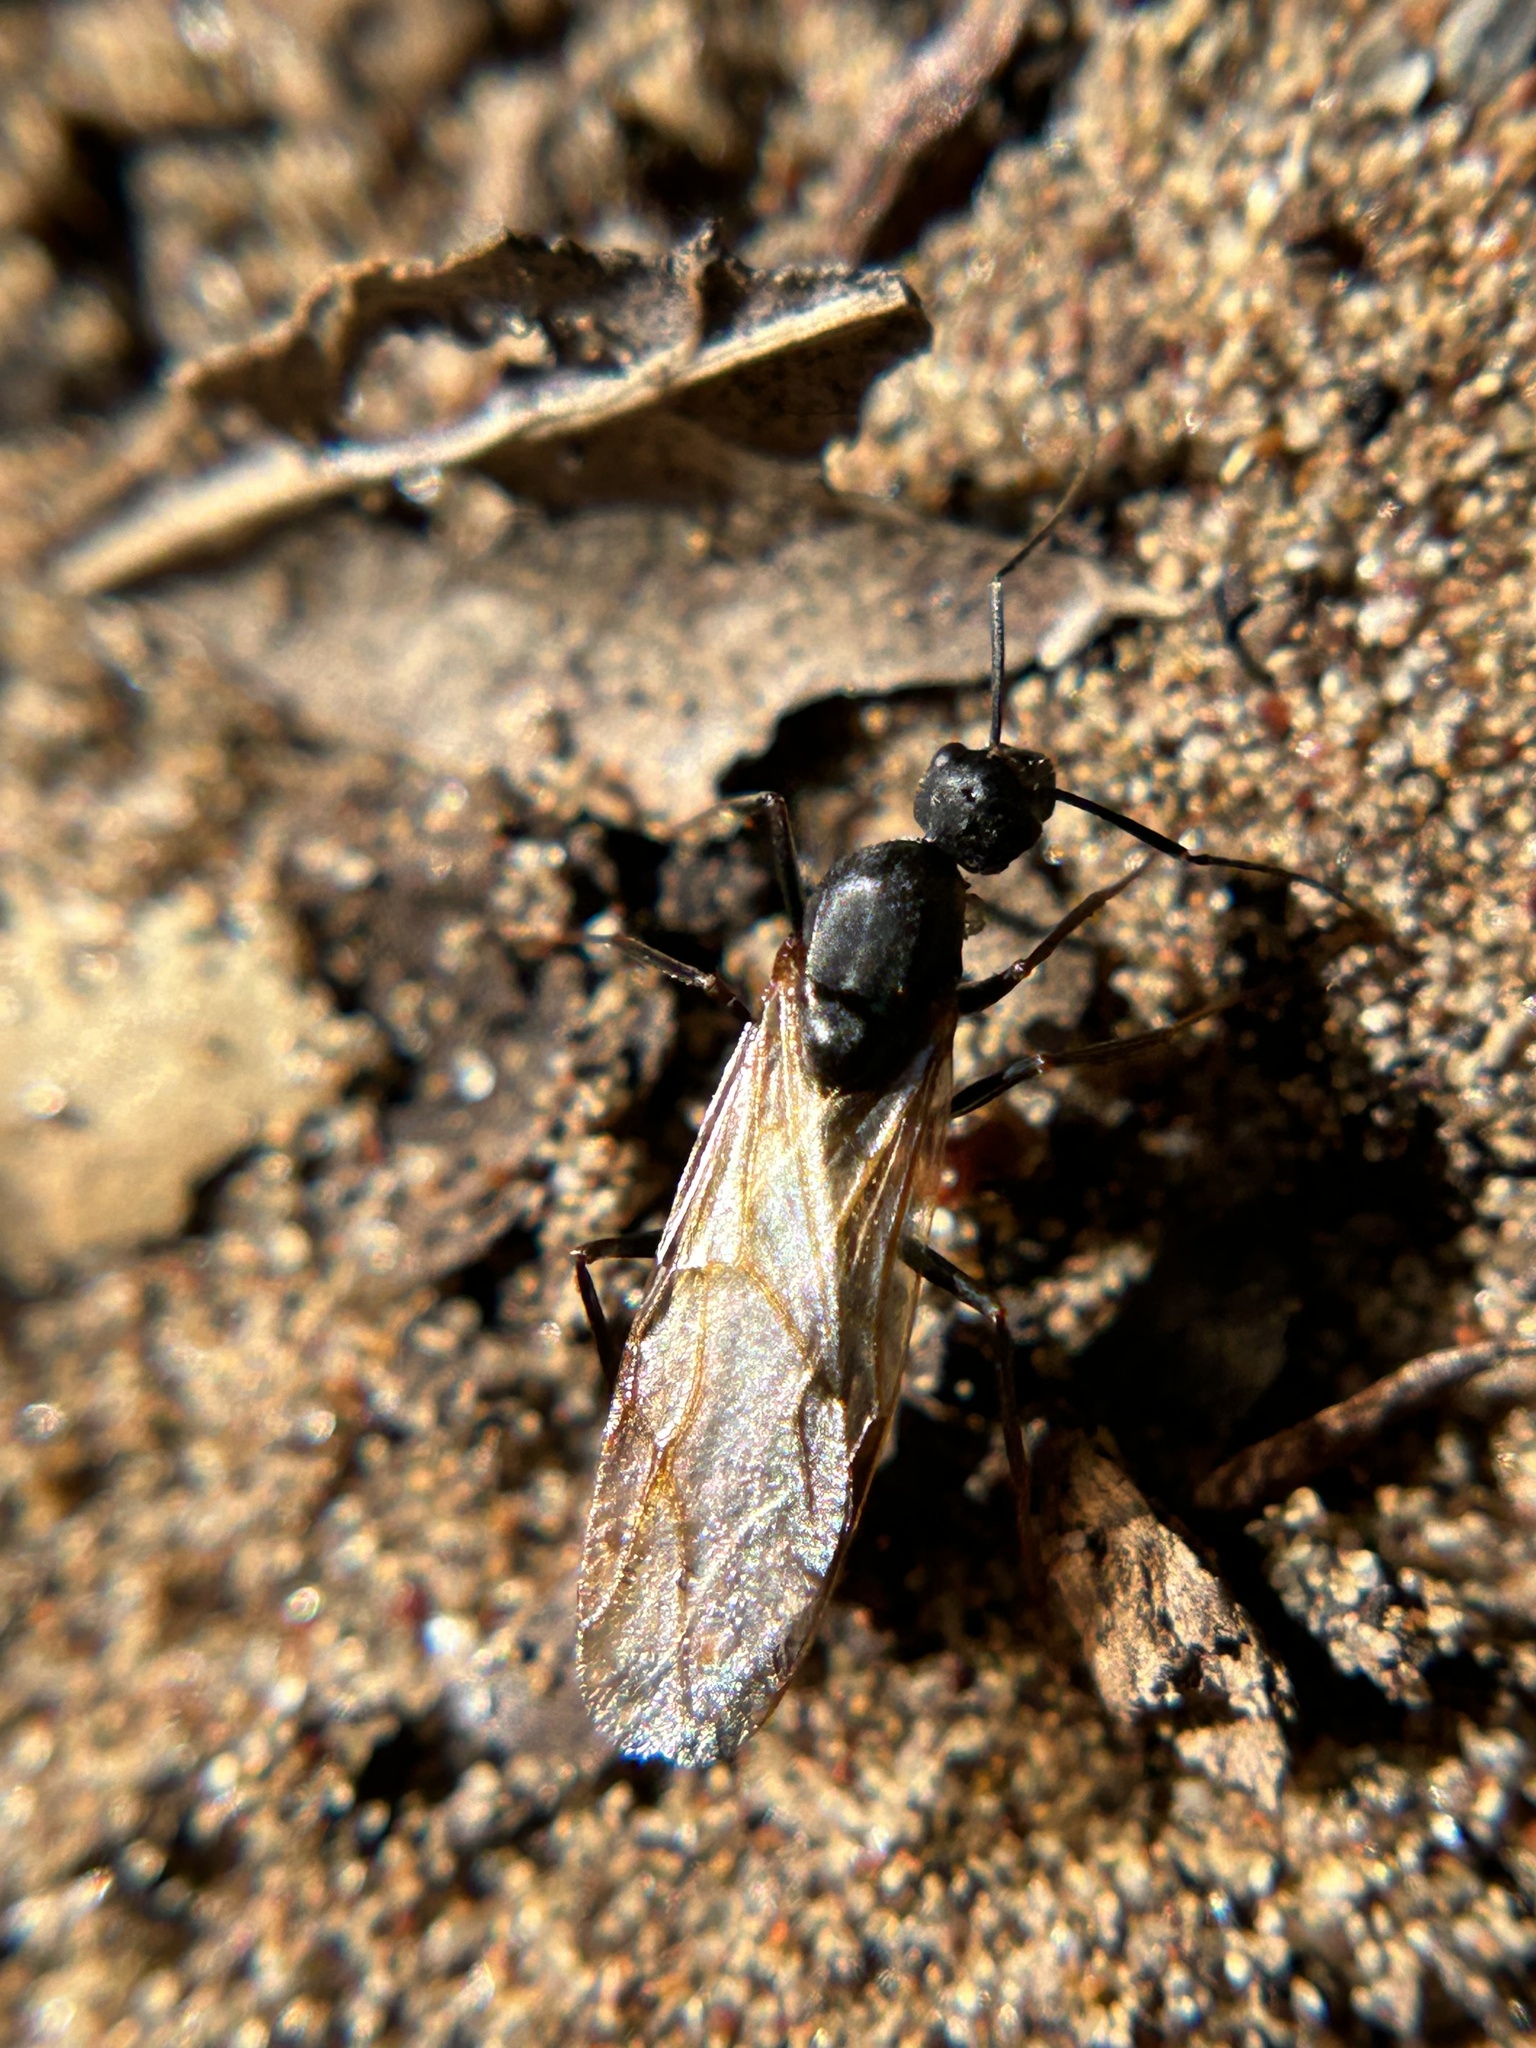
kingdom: Animalia
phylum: Arthropoda
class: Insecta
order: Hymenoptera
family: Formicidae
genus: Camponotus
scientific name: Camponotus vicinus
